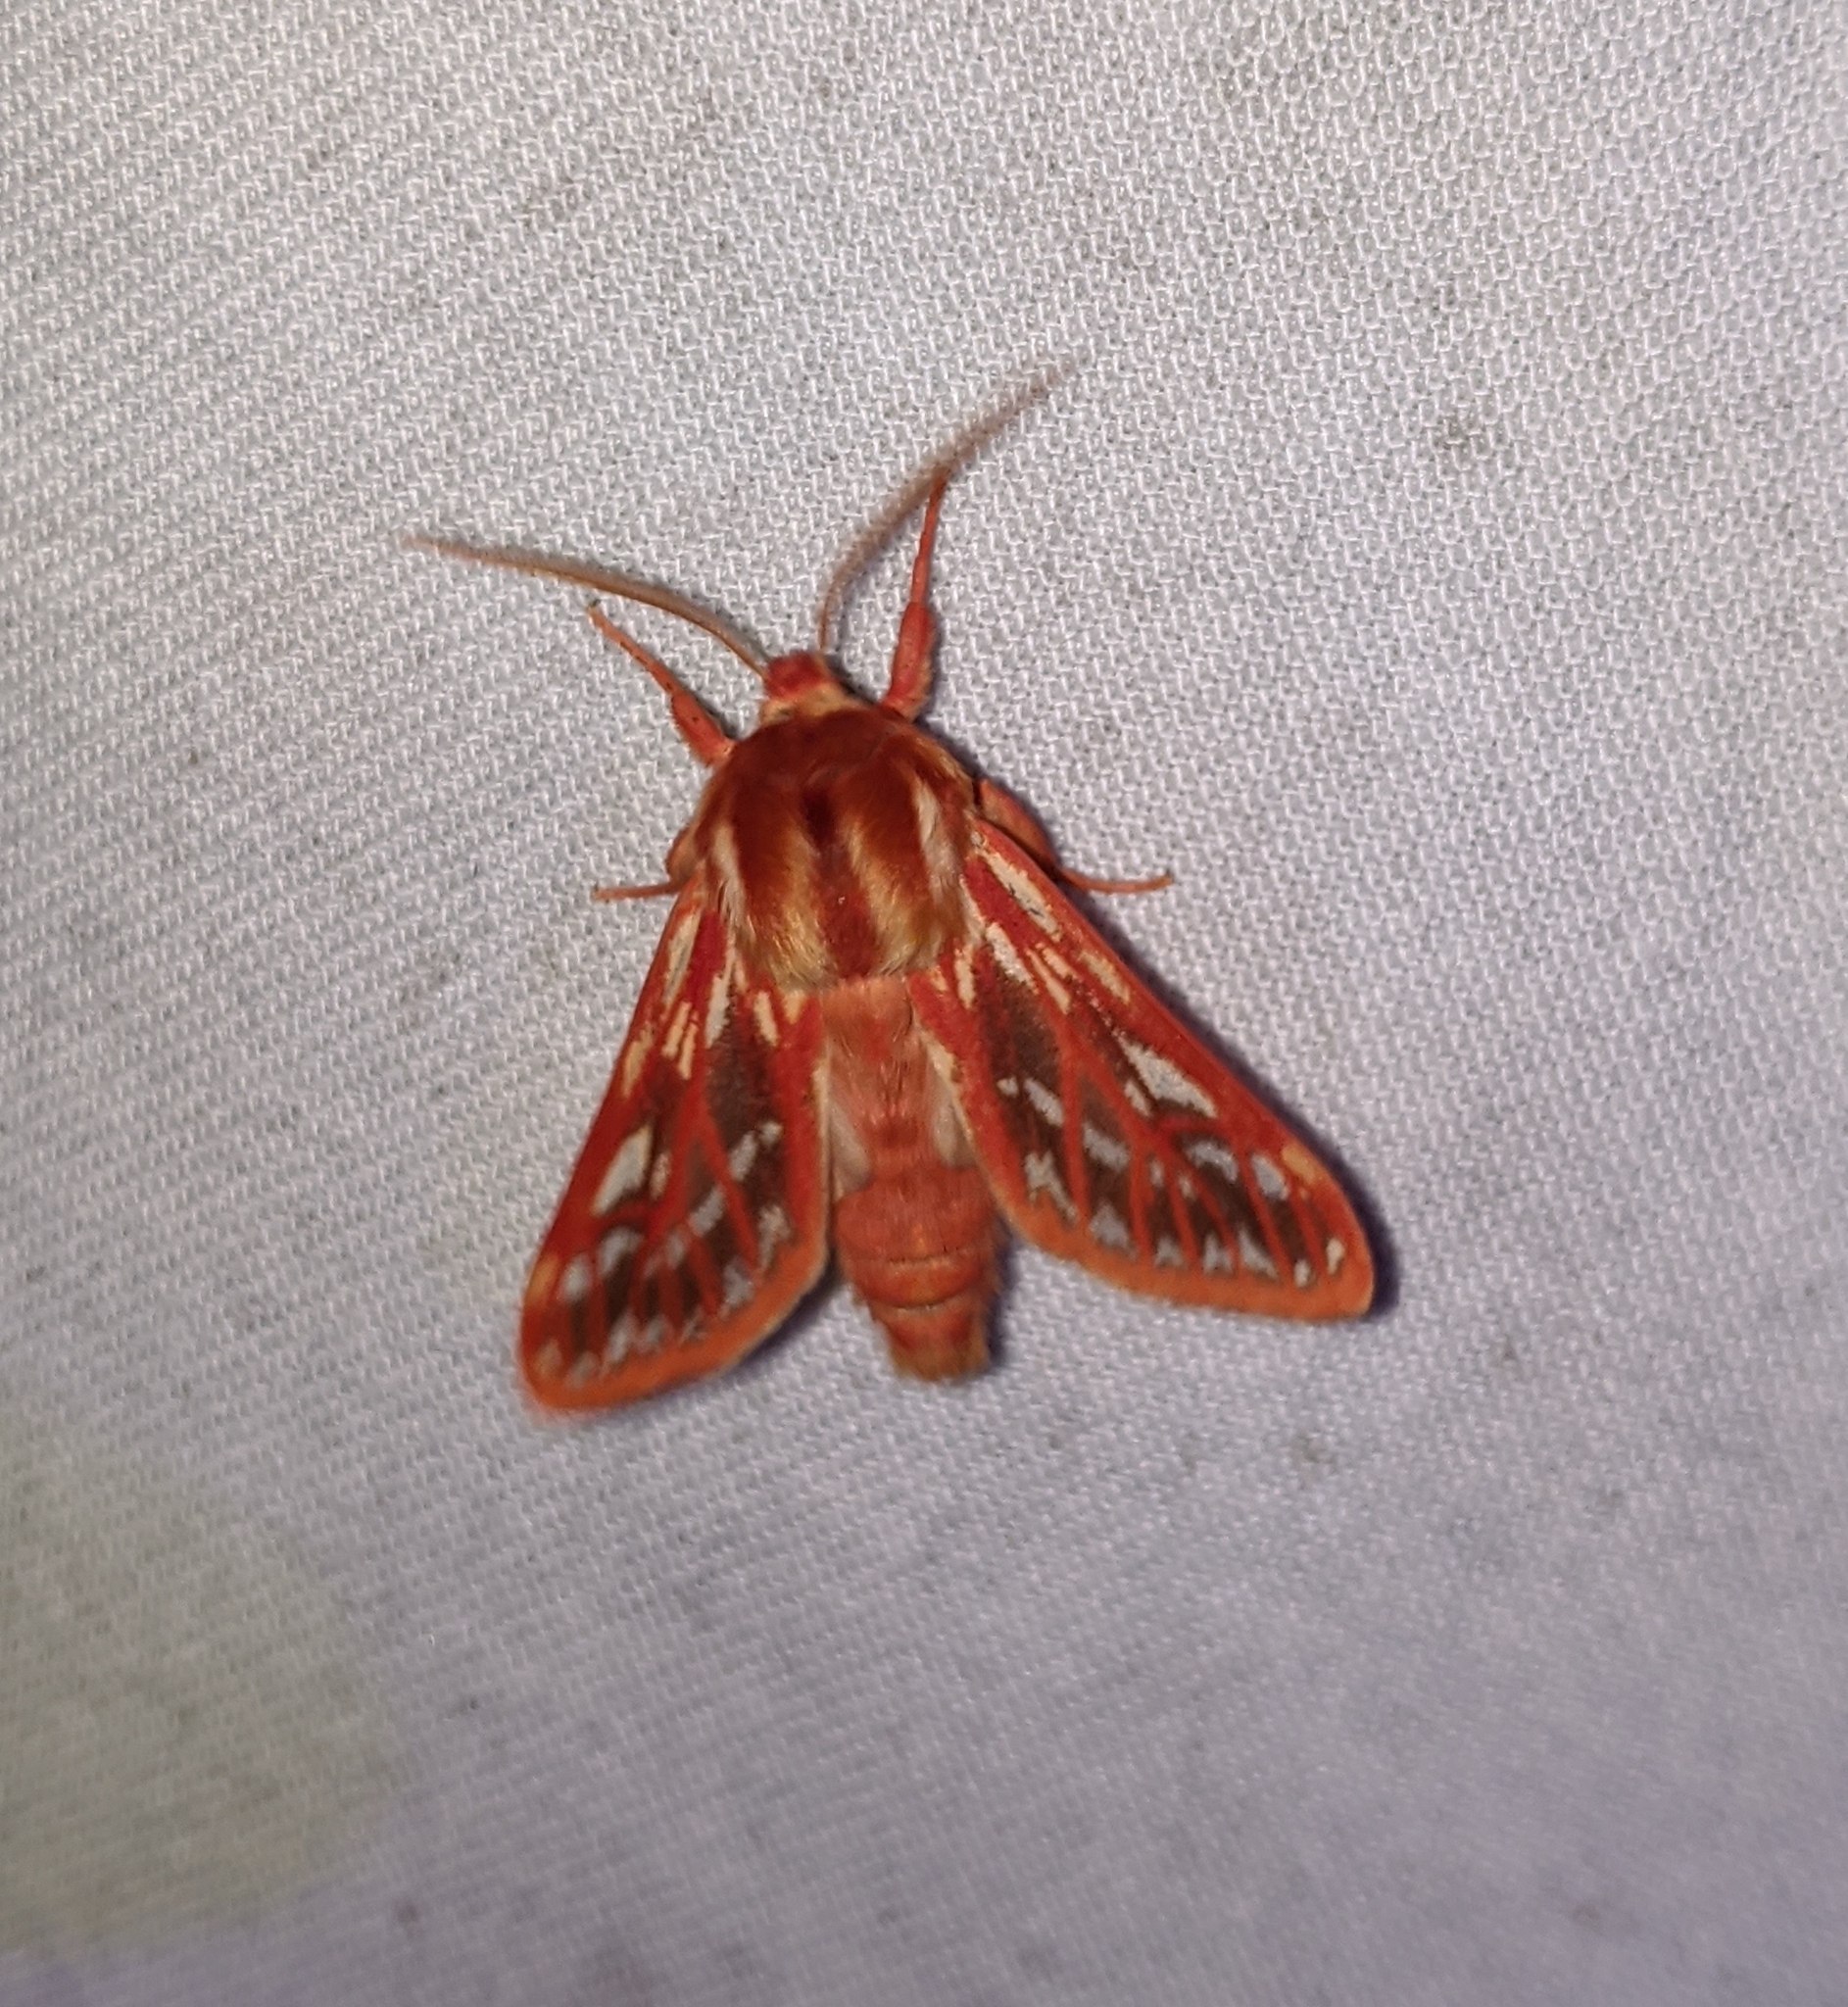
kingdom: Animalia
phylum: Arthropoda
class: Insecta
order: Lepidoptera
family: Erebidae
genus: Lophocampa
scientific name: Lophocampa roseata
